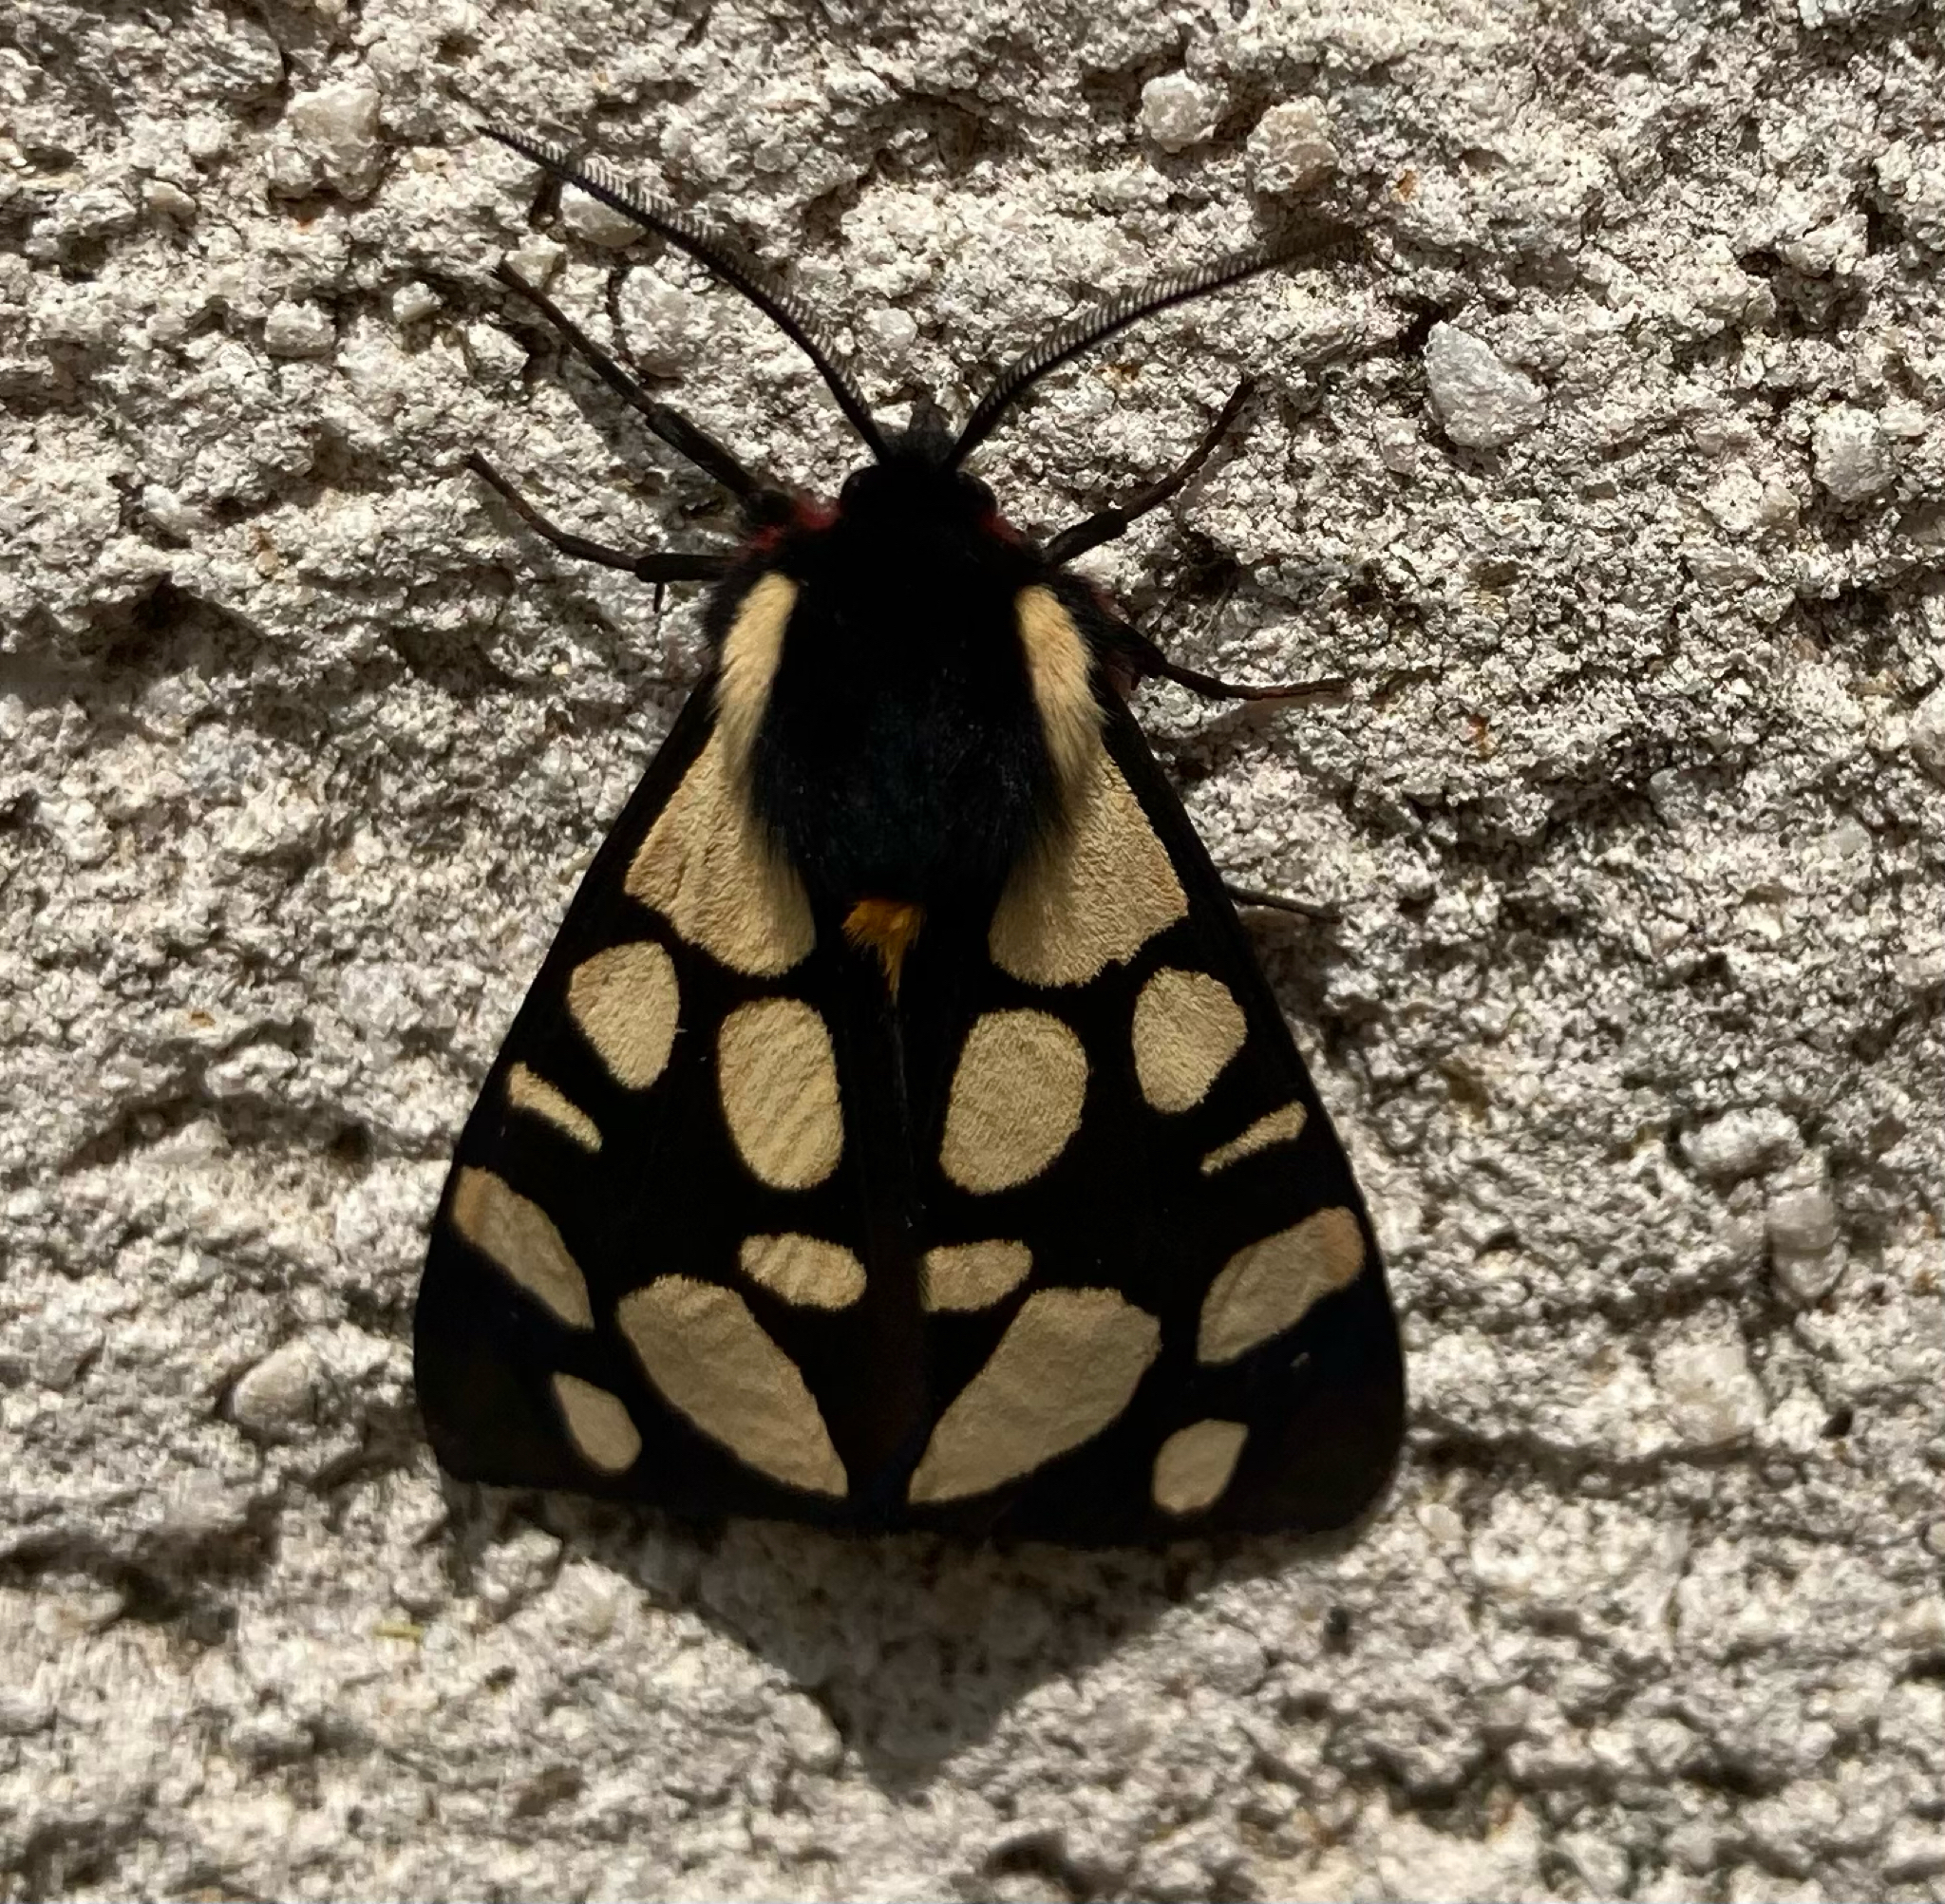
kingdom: Animalia
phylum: Arthropoda
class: Insecta
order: Lepidoptera
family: Erebidae
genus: Epicallia
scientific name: Epicallia villica
